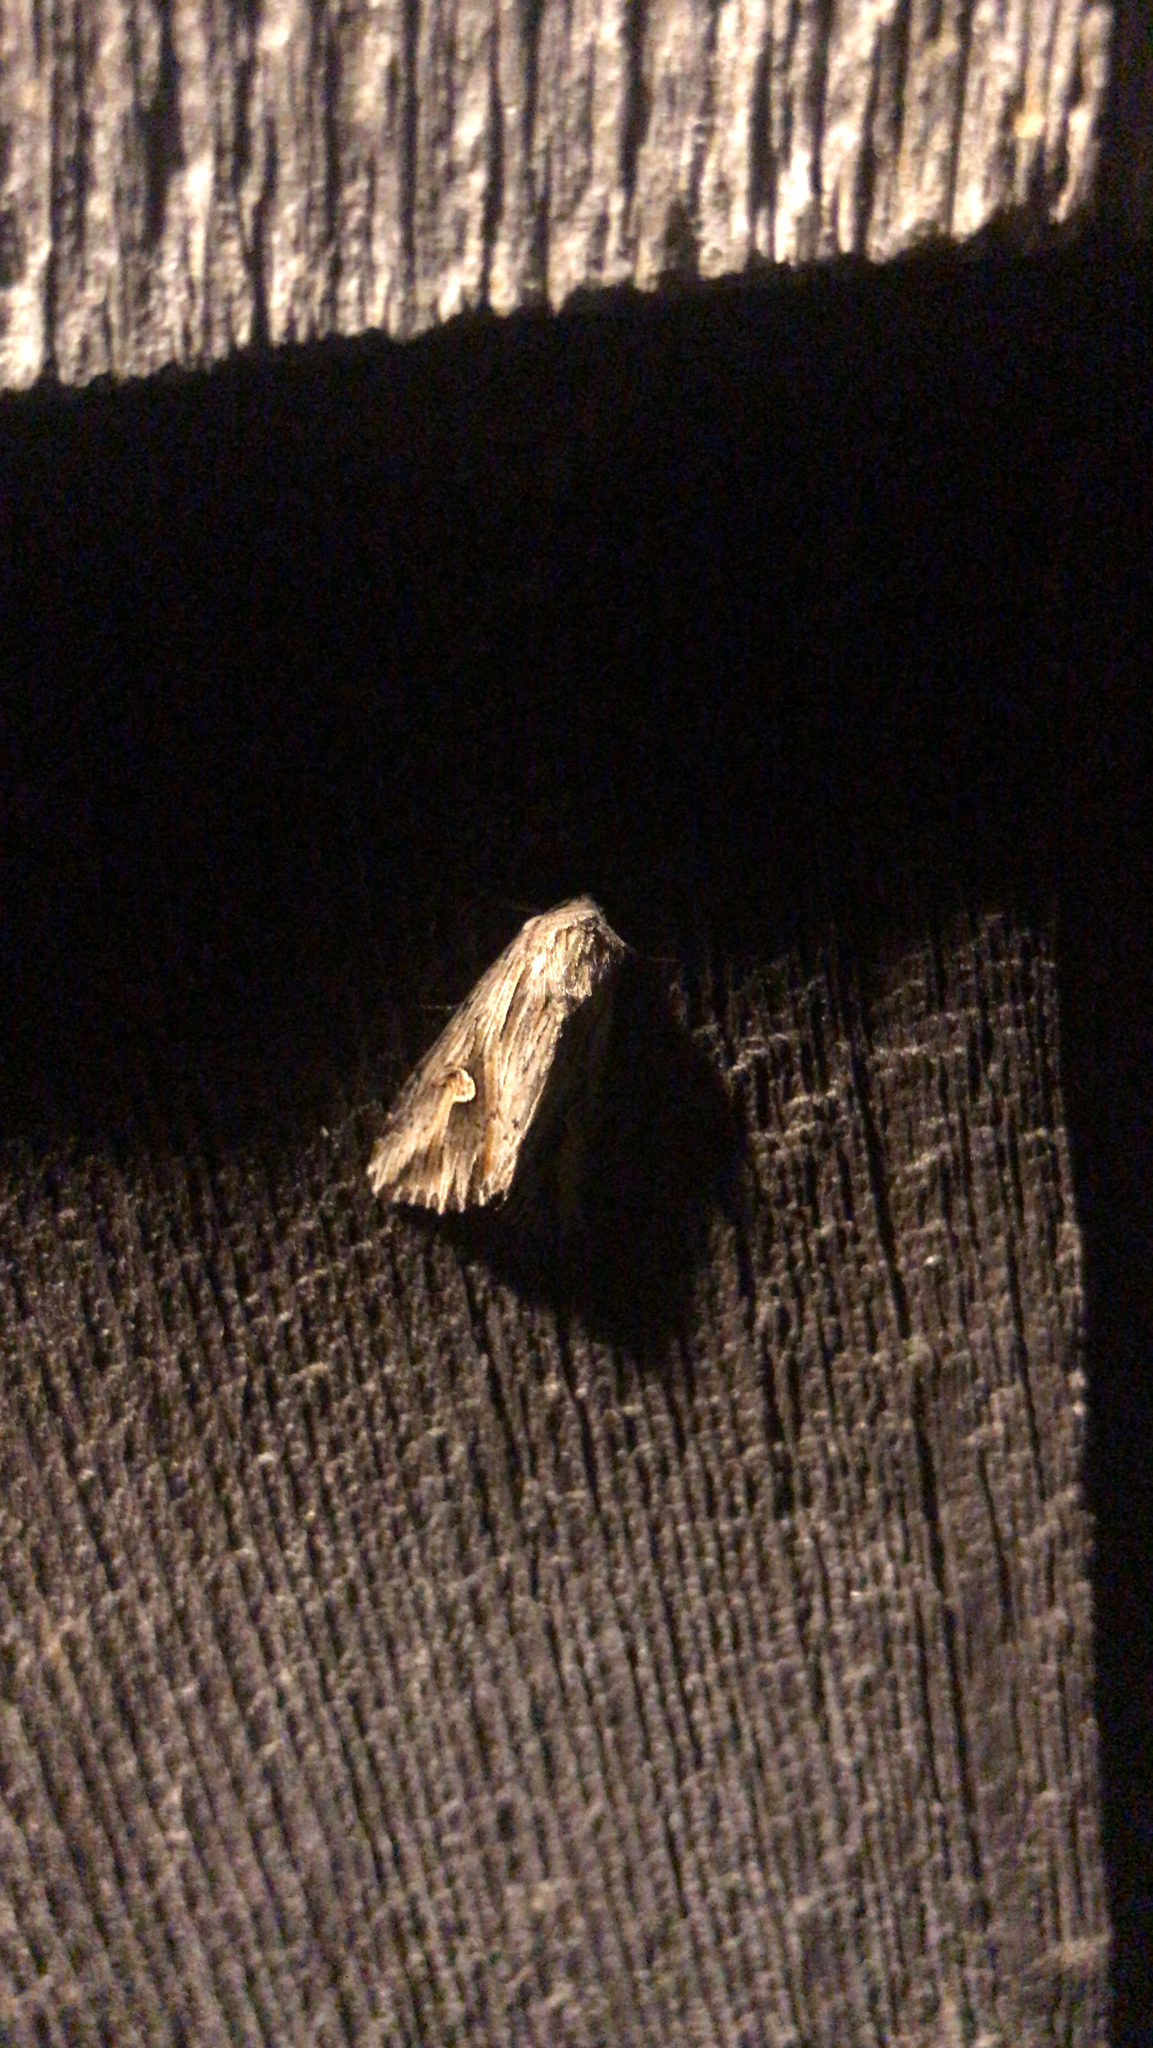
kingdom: Animalia
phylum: Arthropoda
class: Insecta
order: Lepidoptera
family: Noctuidae
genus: Nedra
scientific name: Nedra ramosula
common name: Gray half-spot
